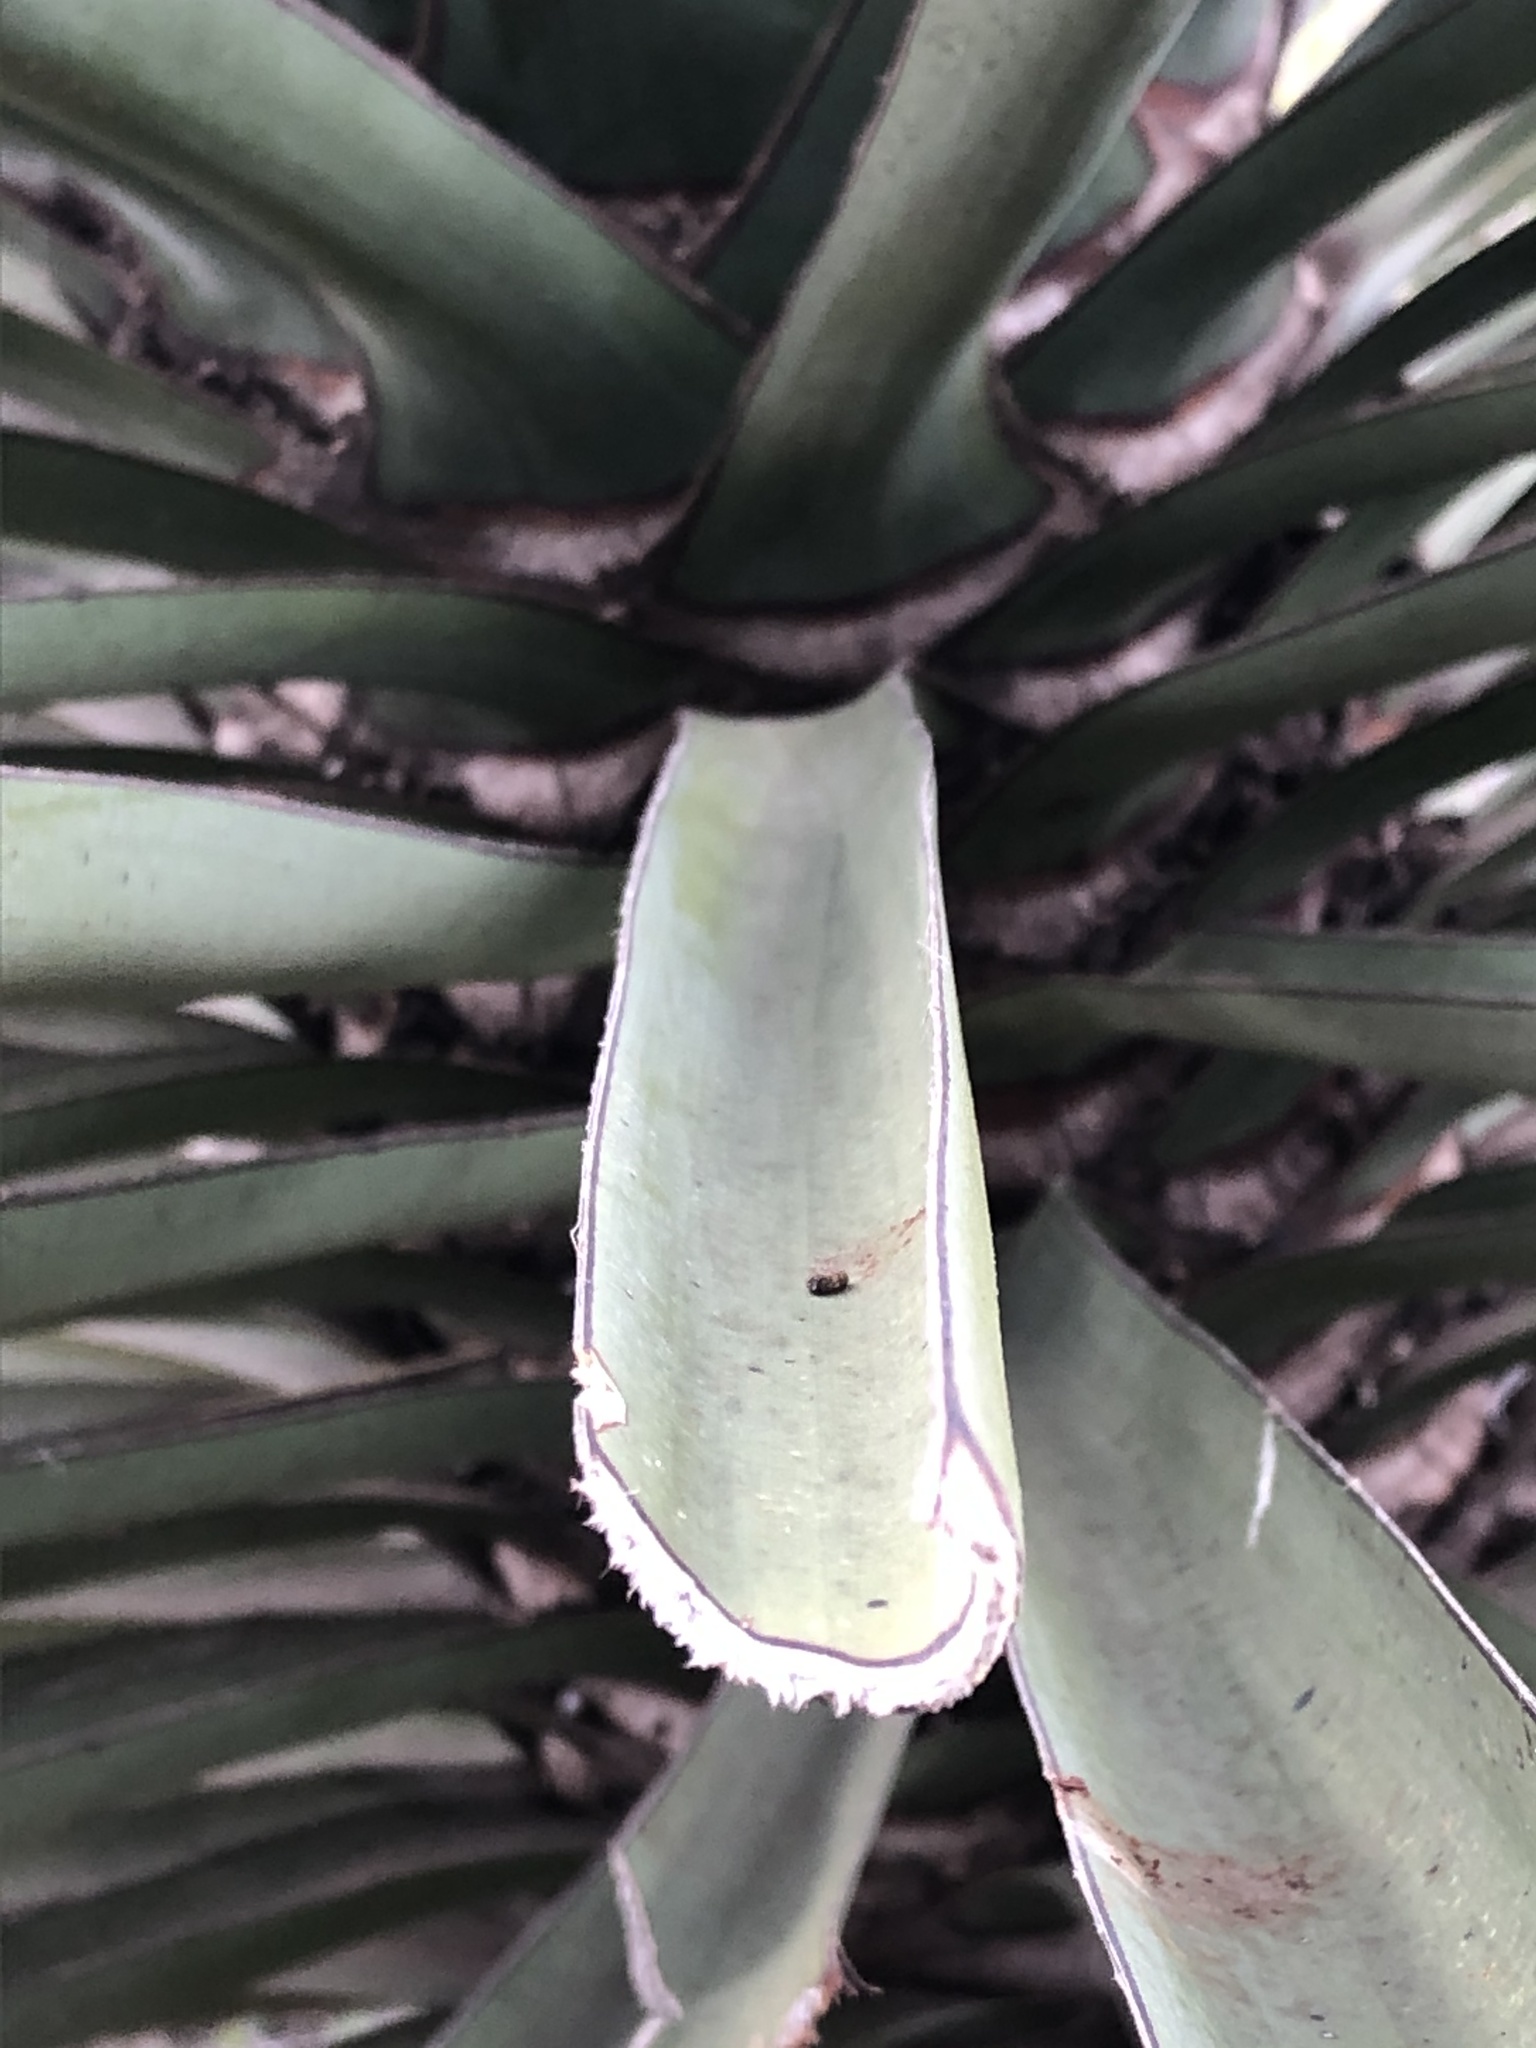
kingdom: Plantae
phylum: Tracheophyta
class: Liliopsida
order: Asparagales
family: Asparagaceae
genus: Yucca
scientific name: Yucca treculiana
